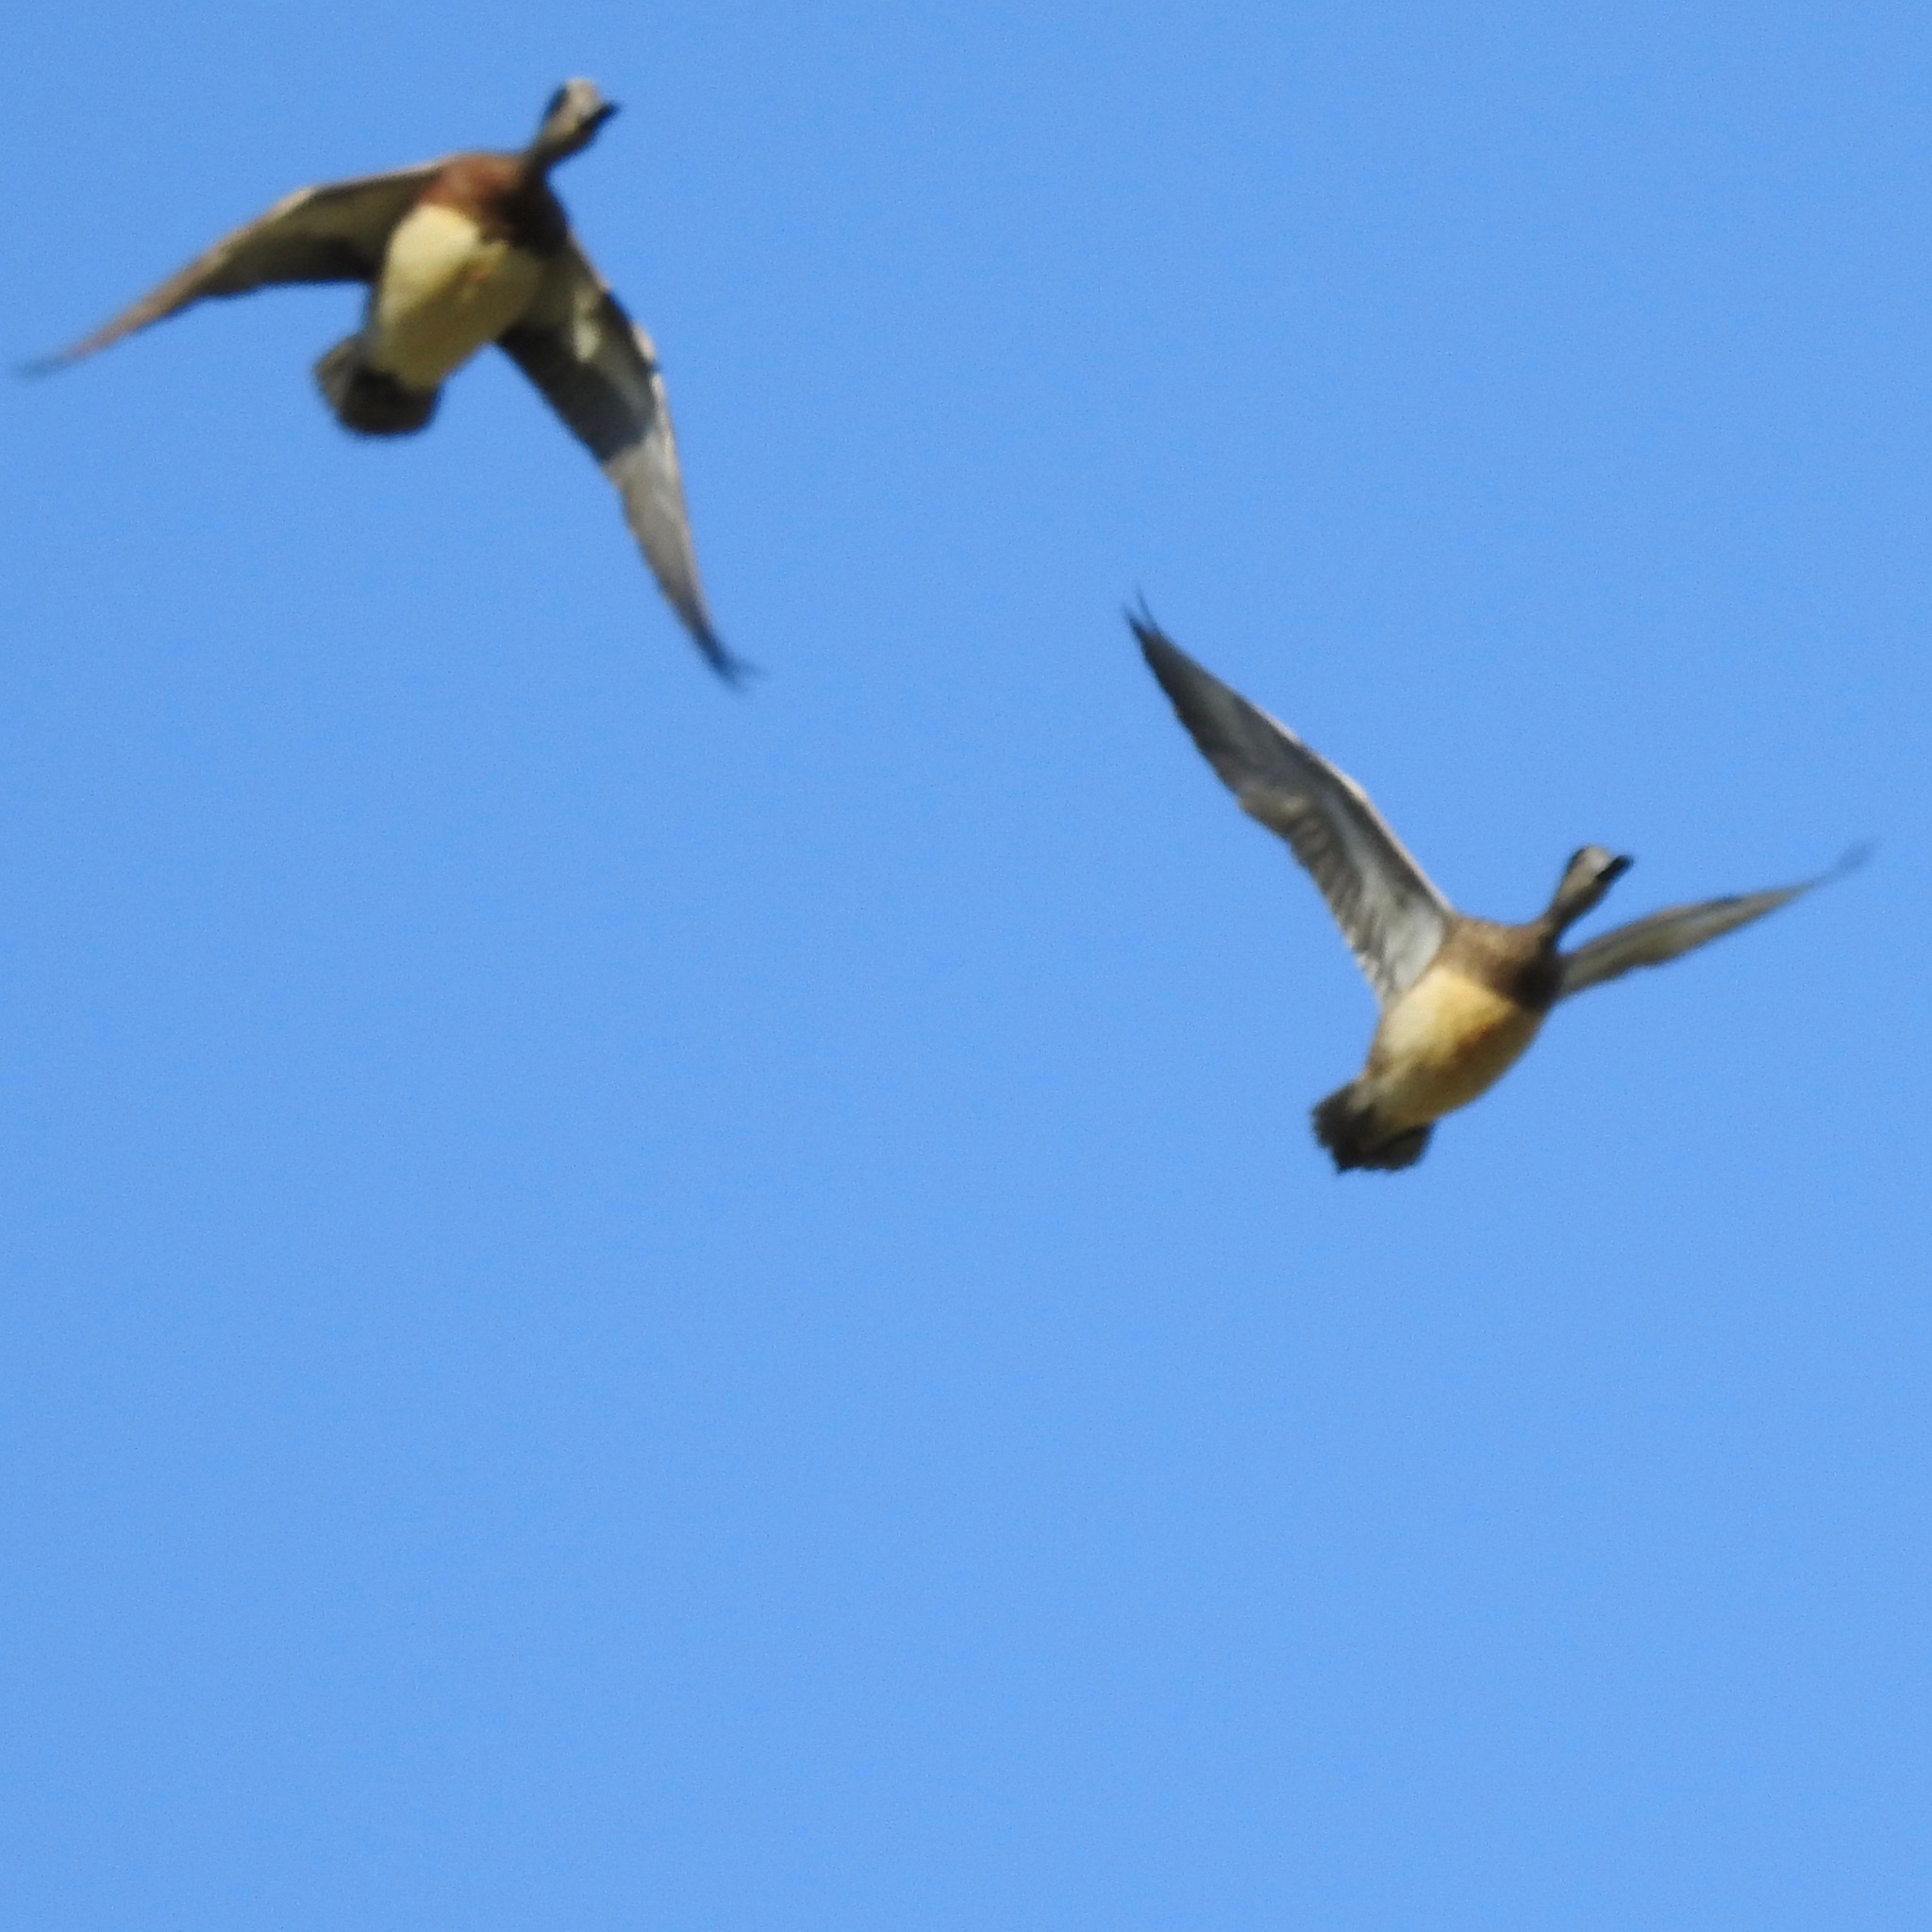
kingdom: Animalia
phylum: Chordata
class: Aves
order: Anseriformes
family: Anatidae
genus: Mareca
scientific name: Mareca americana
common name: American wigeon
